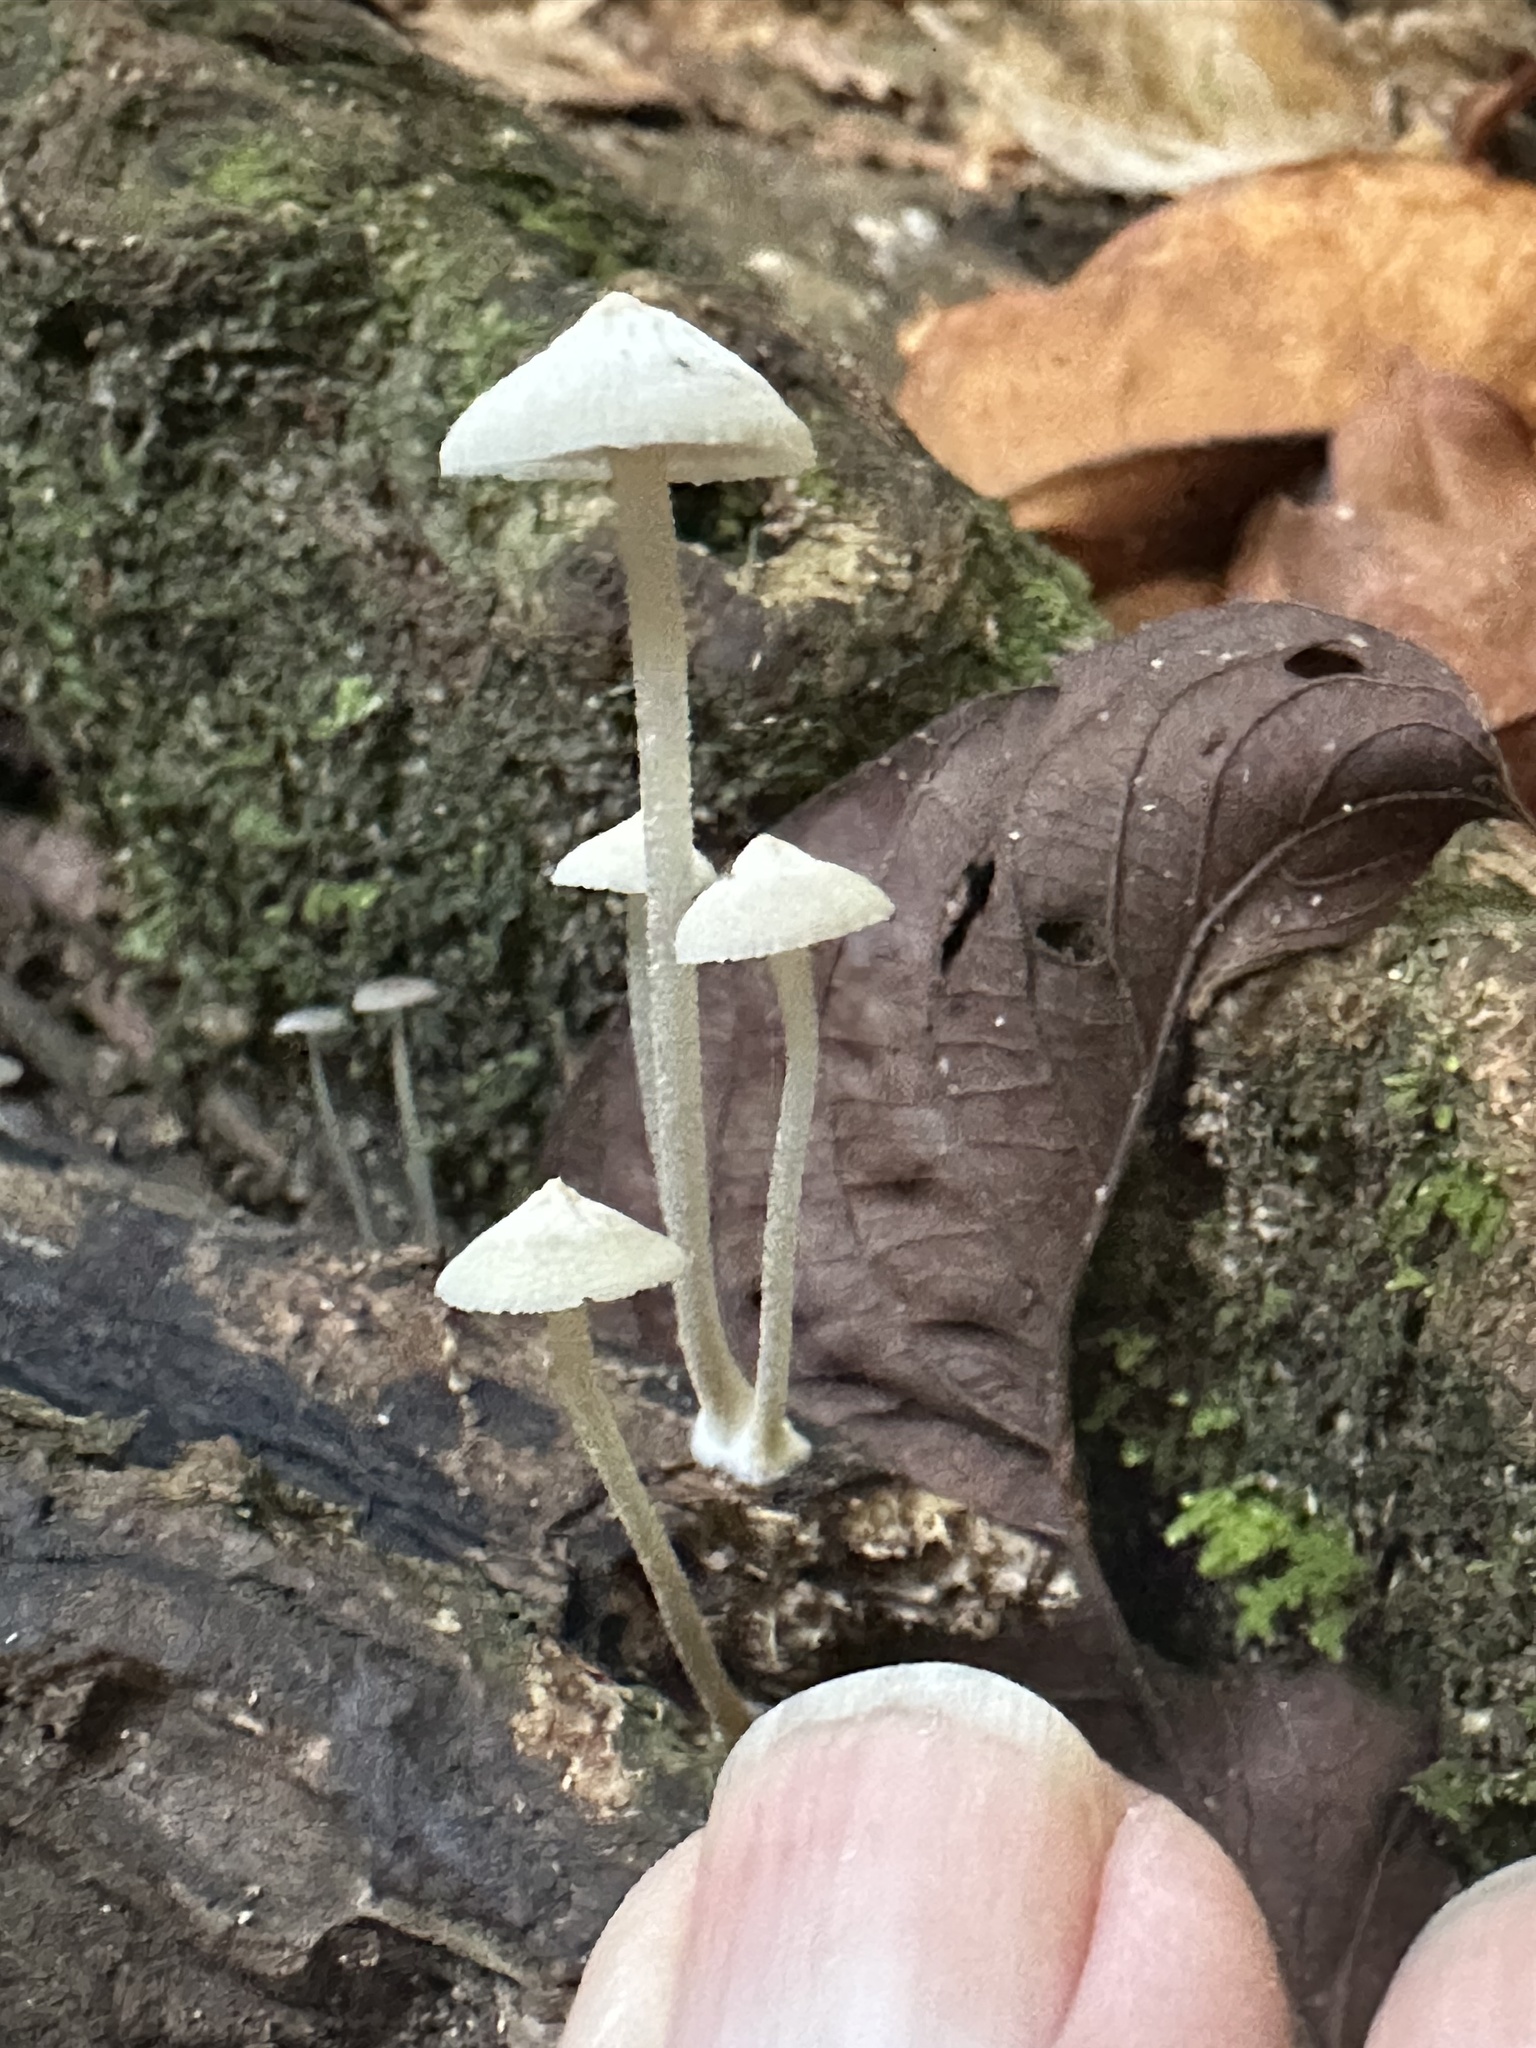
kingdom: Fungi
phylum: Basidiomycota
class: Agaricomycetes
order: Agaricales
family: Mycenaceae
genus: Filoboletus
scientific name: Filoboletus manipularis
